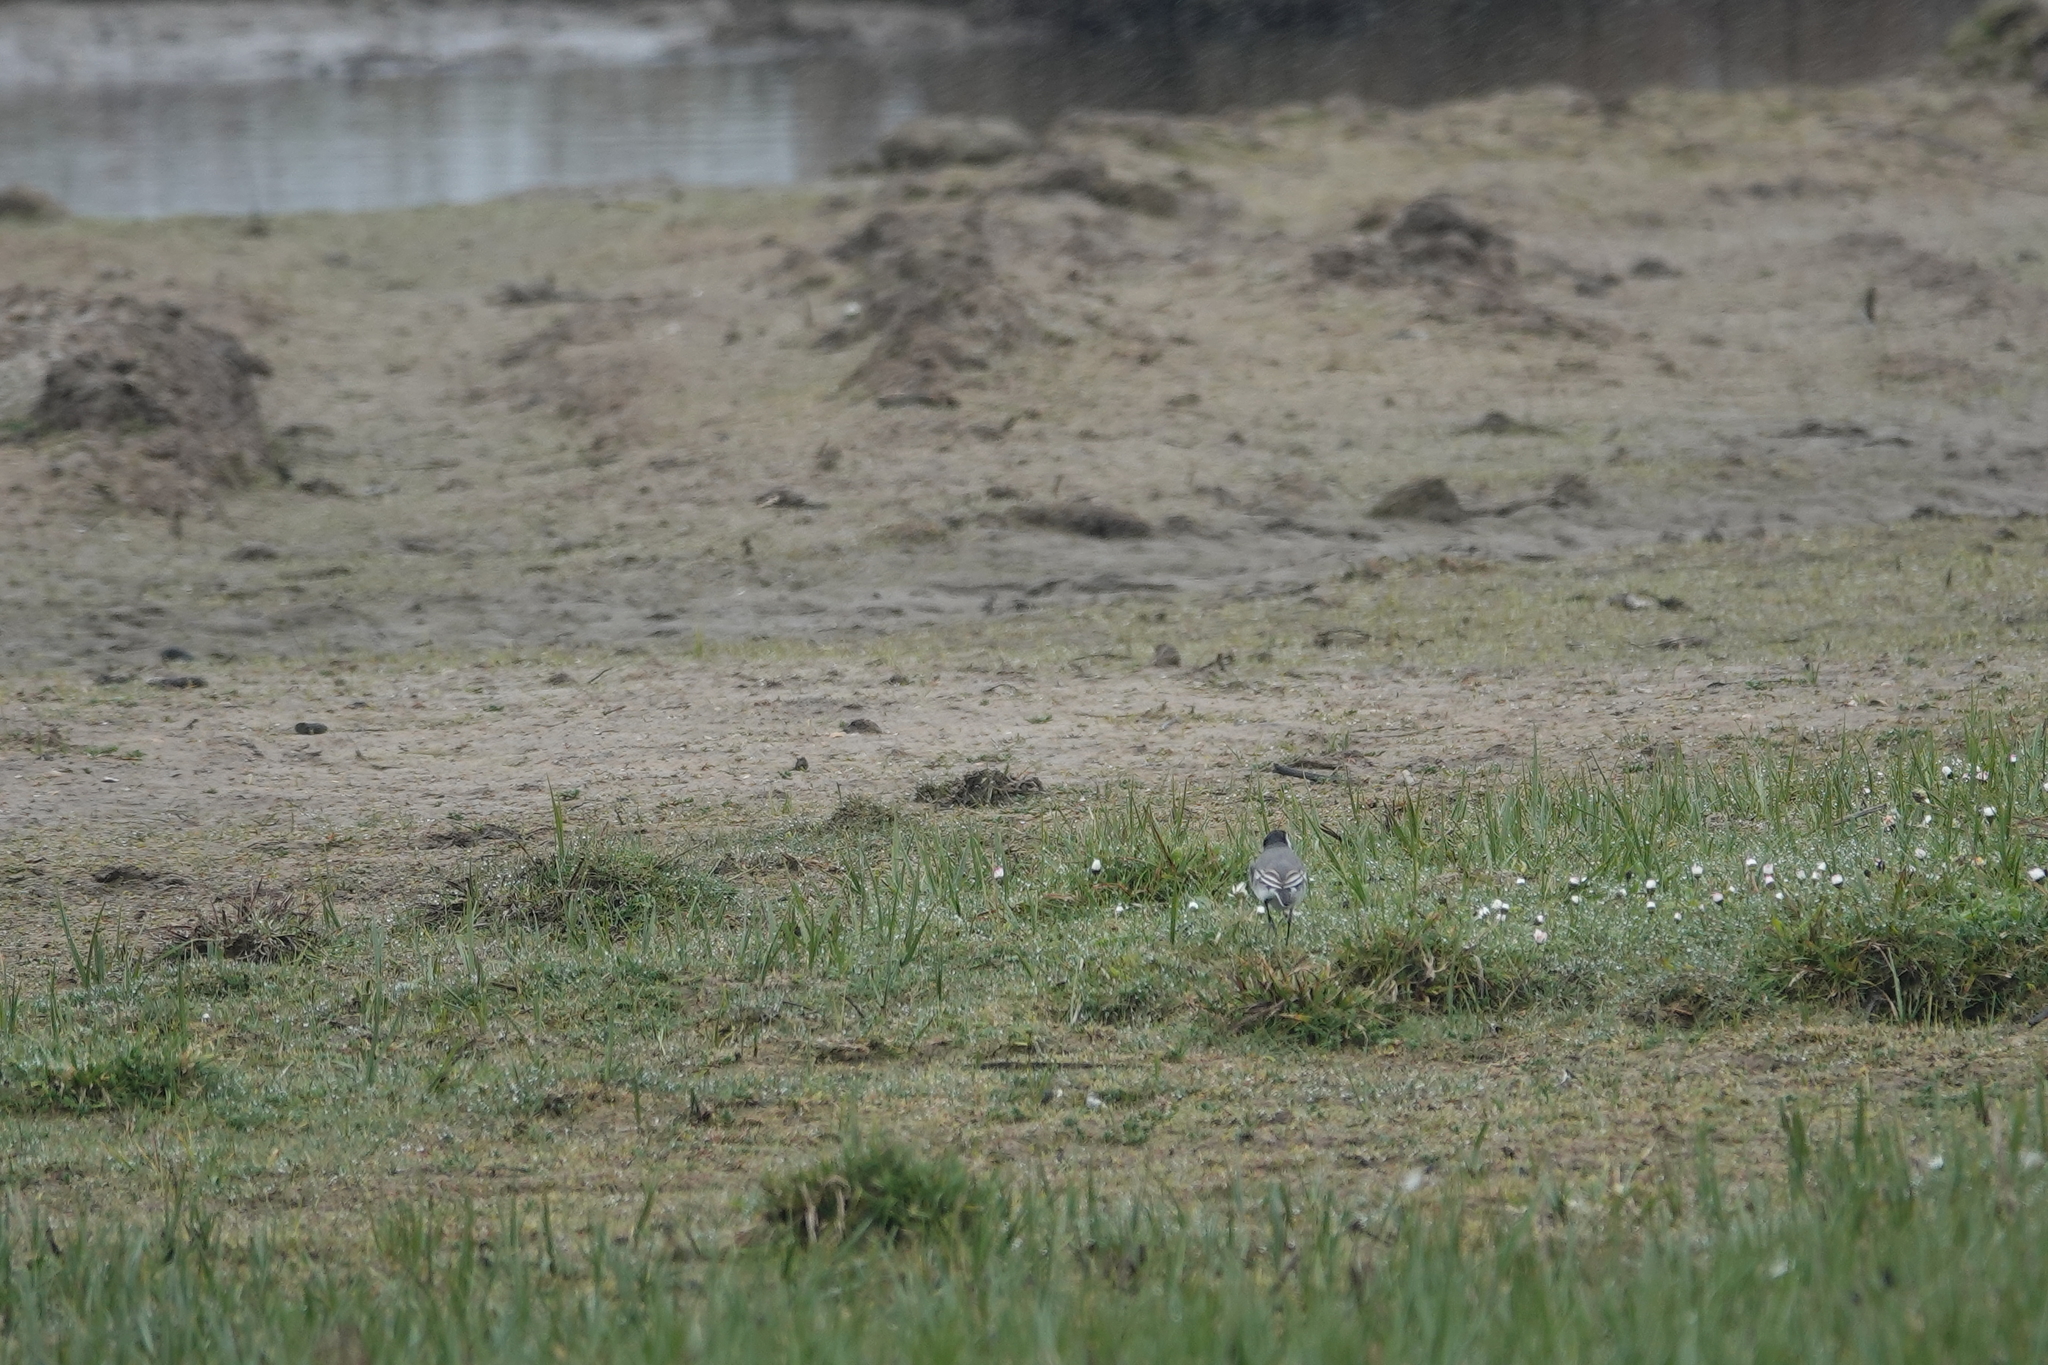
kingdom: Animalia
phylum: Chordata
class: Aves
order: Passeriformes
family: Motacillidae
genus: Motacilla
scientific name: Motacilla alba
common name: White wagtail
